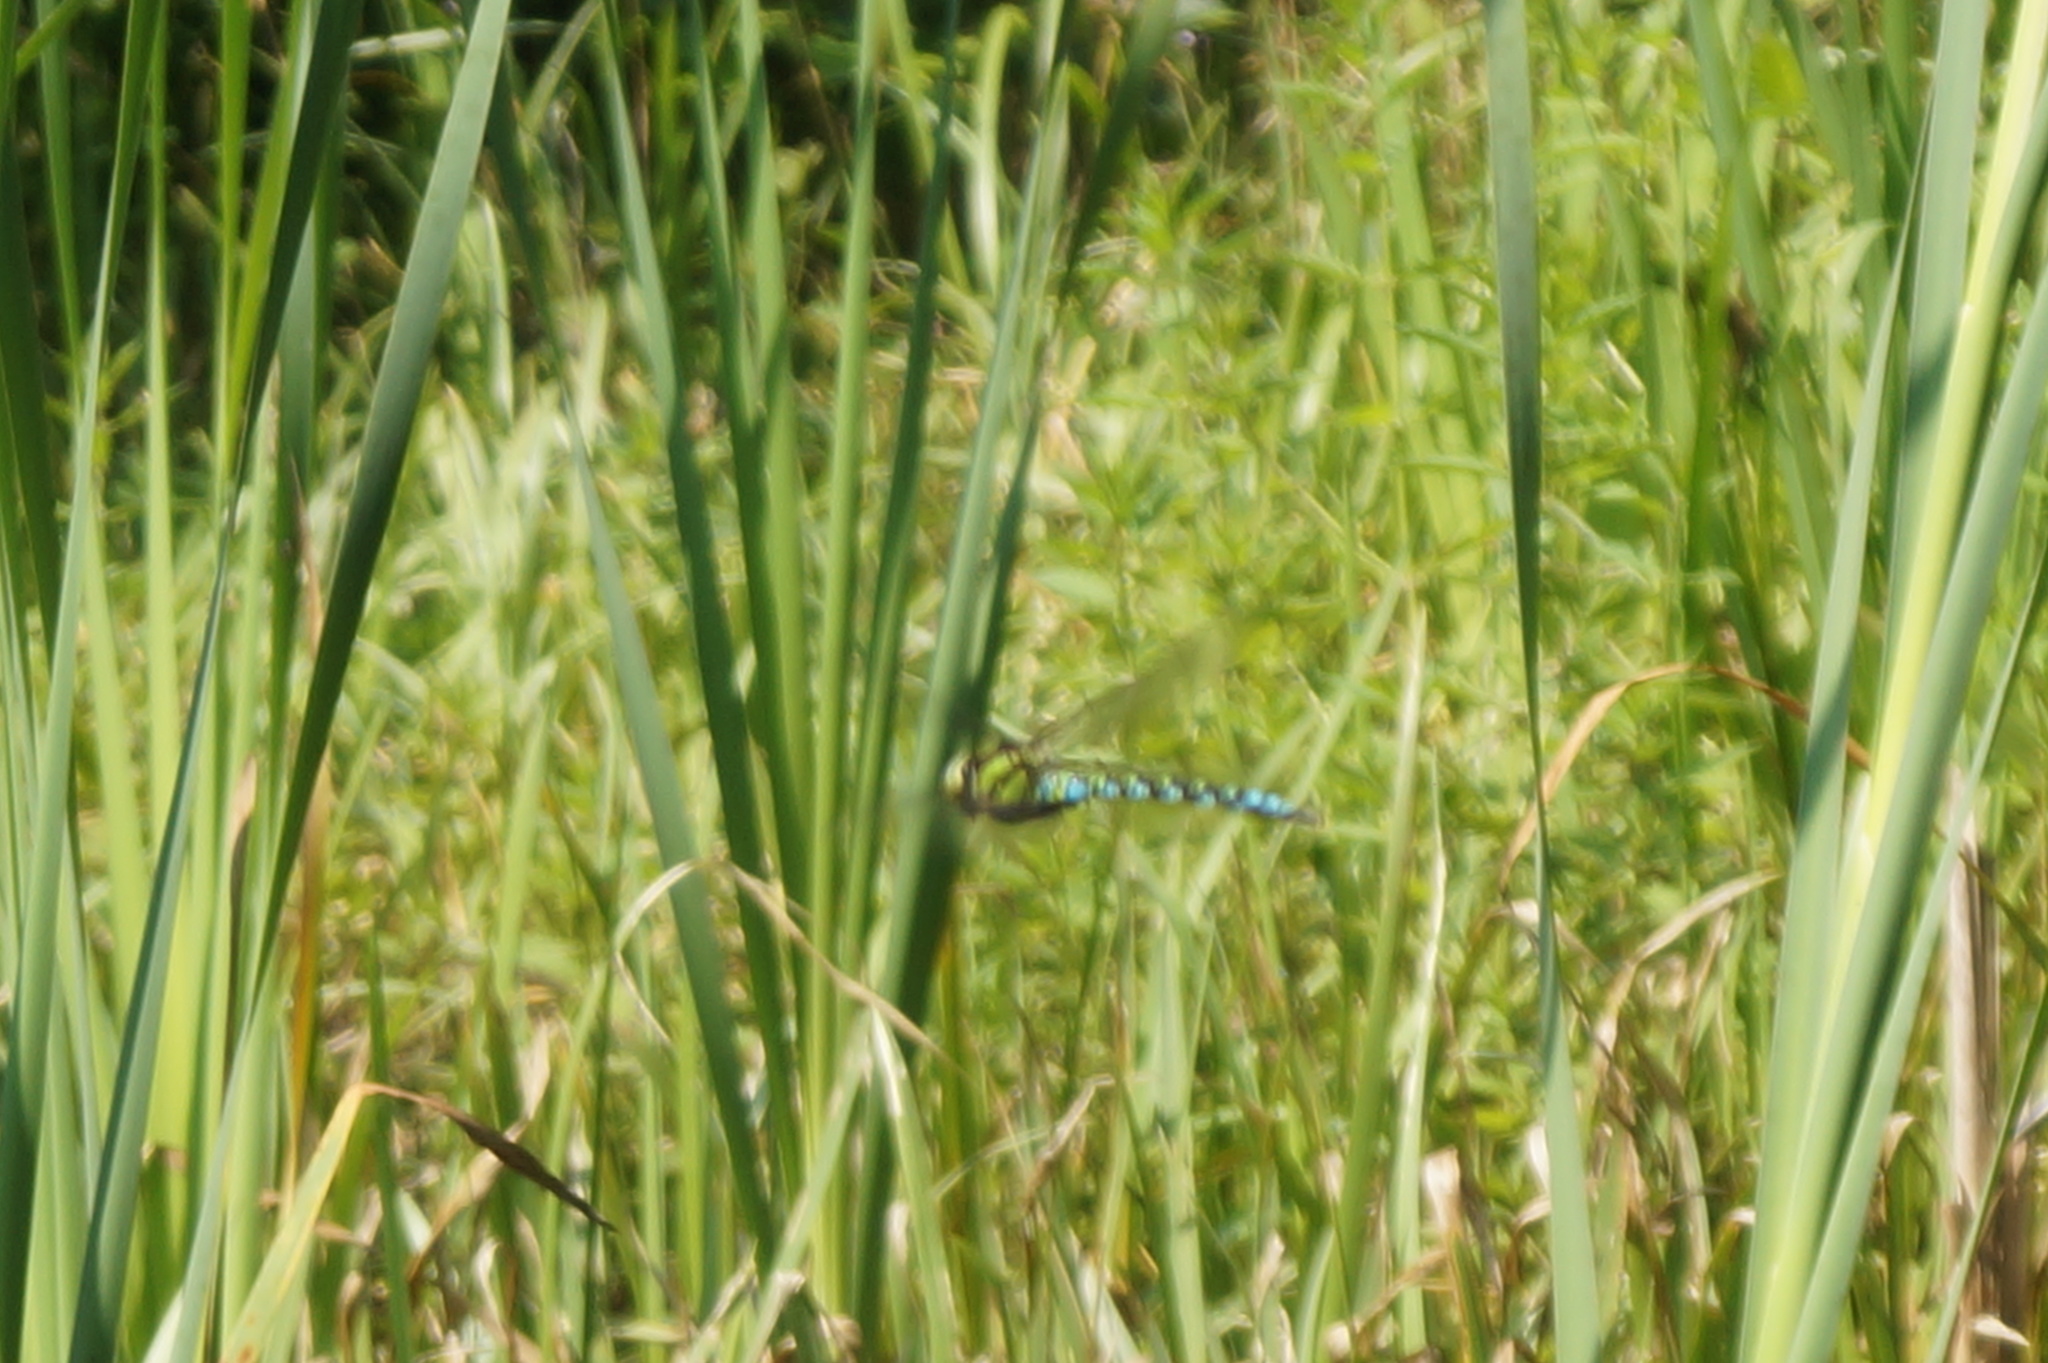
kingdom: Animalia
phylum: Arthropoda
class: Insecta
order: Odonata
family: Aeshnidae
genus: Aeshna
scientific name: Aeshna cyanea
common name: Southern hawker
